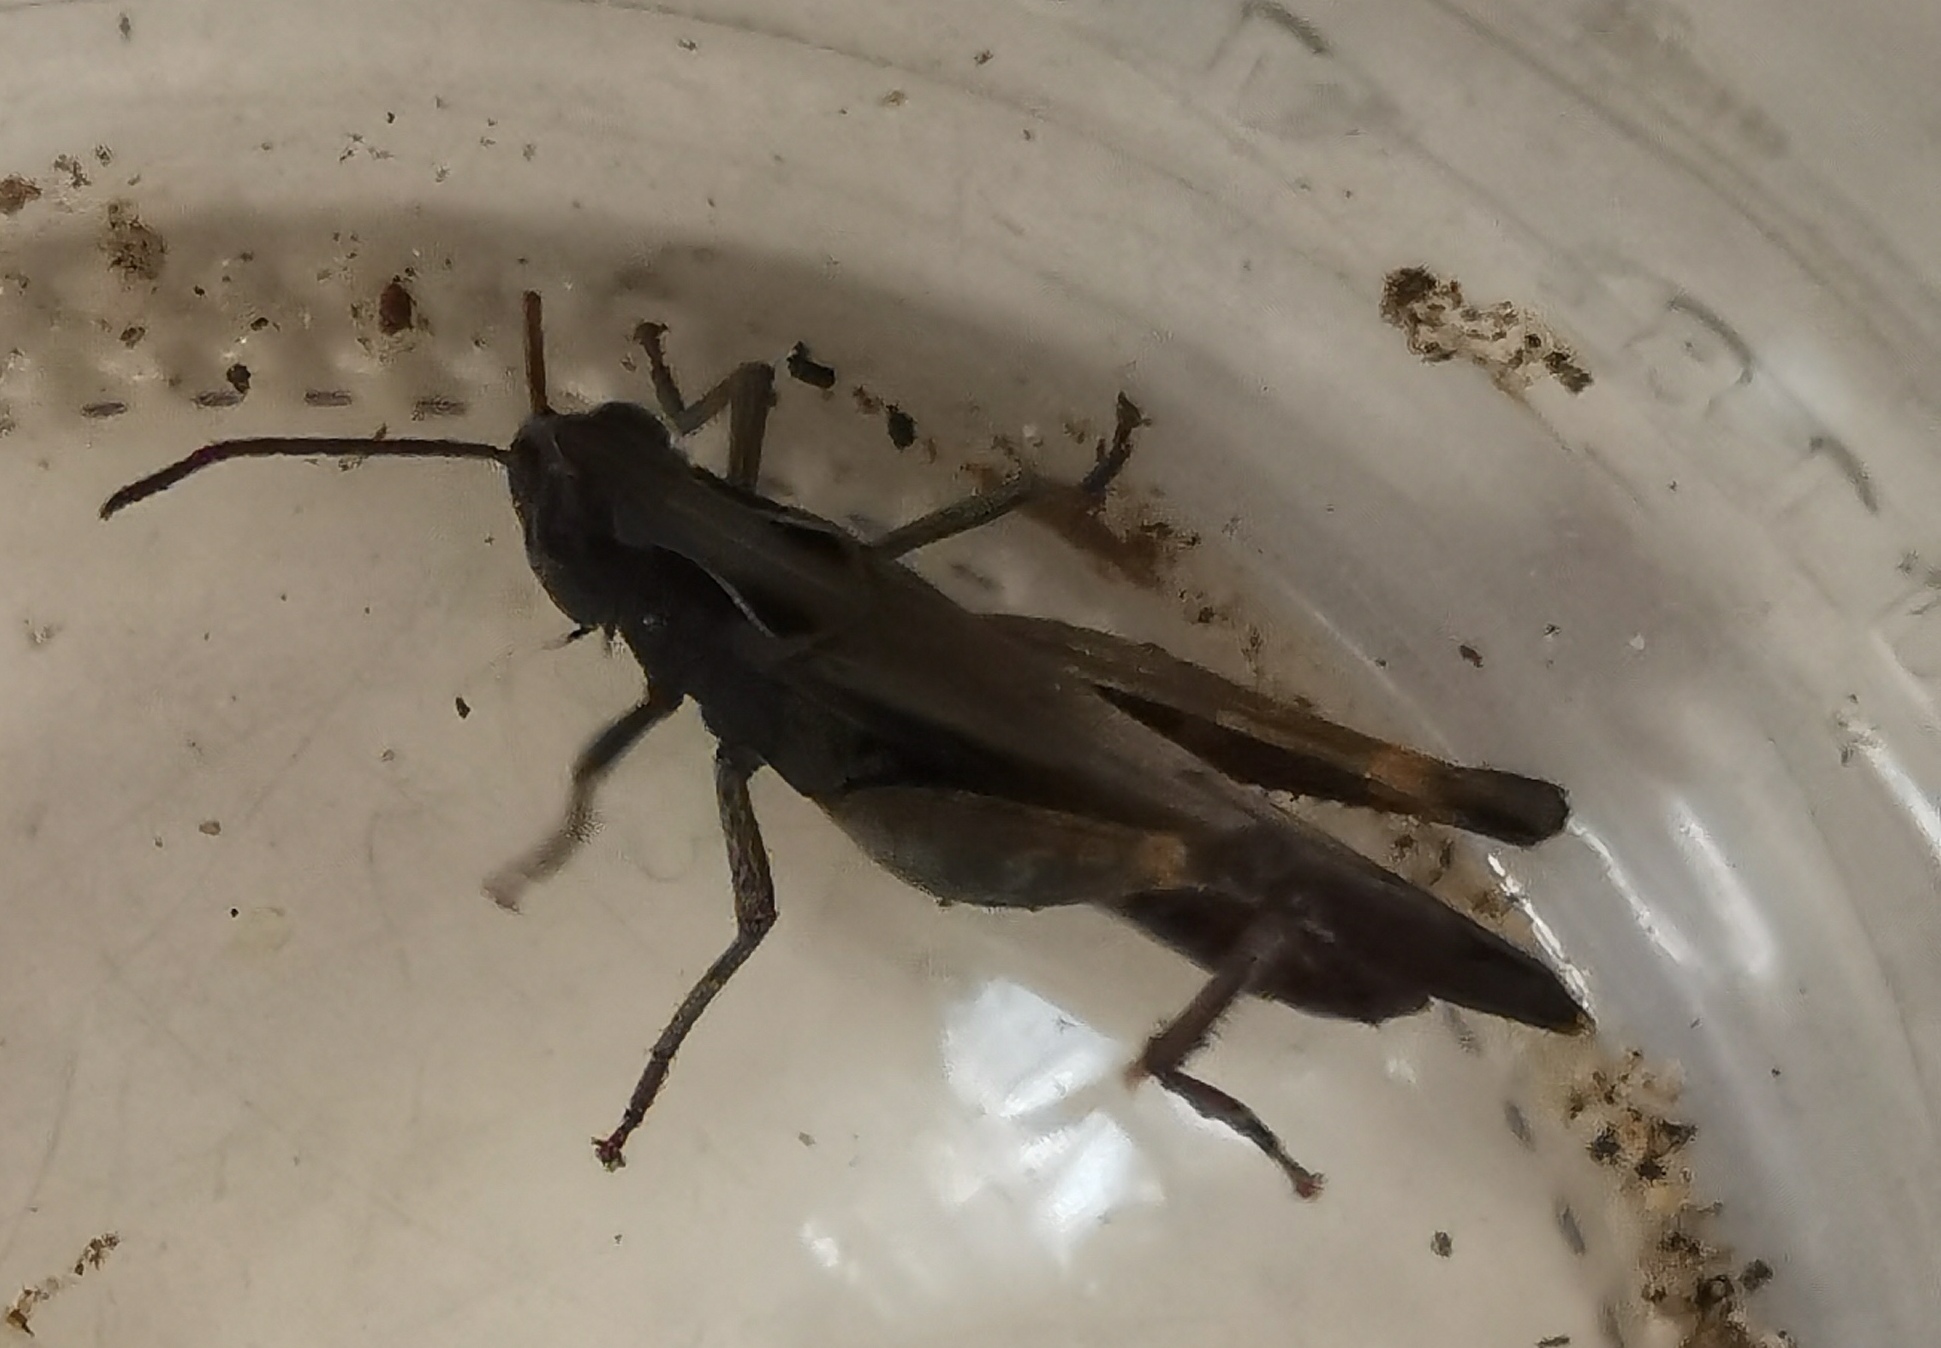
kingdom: Animalia
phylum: Arthropoda
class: Insecta
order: Orthoptera
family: Acrididae
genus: Omocestus
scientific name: Omocestus rufipes
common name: Woodland grasshopper
